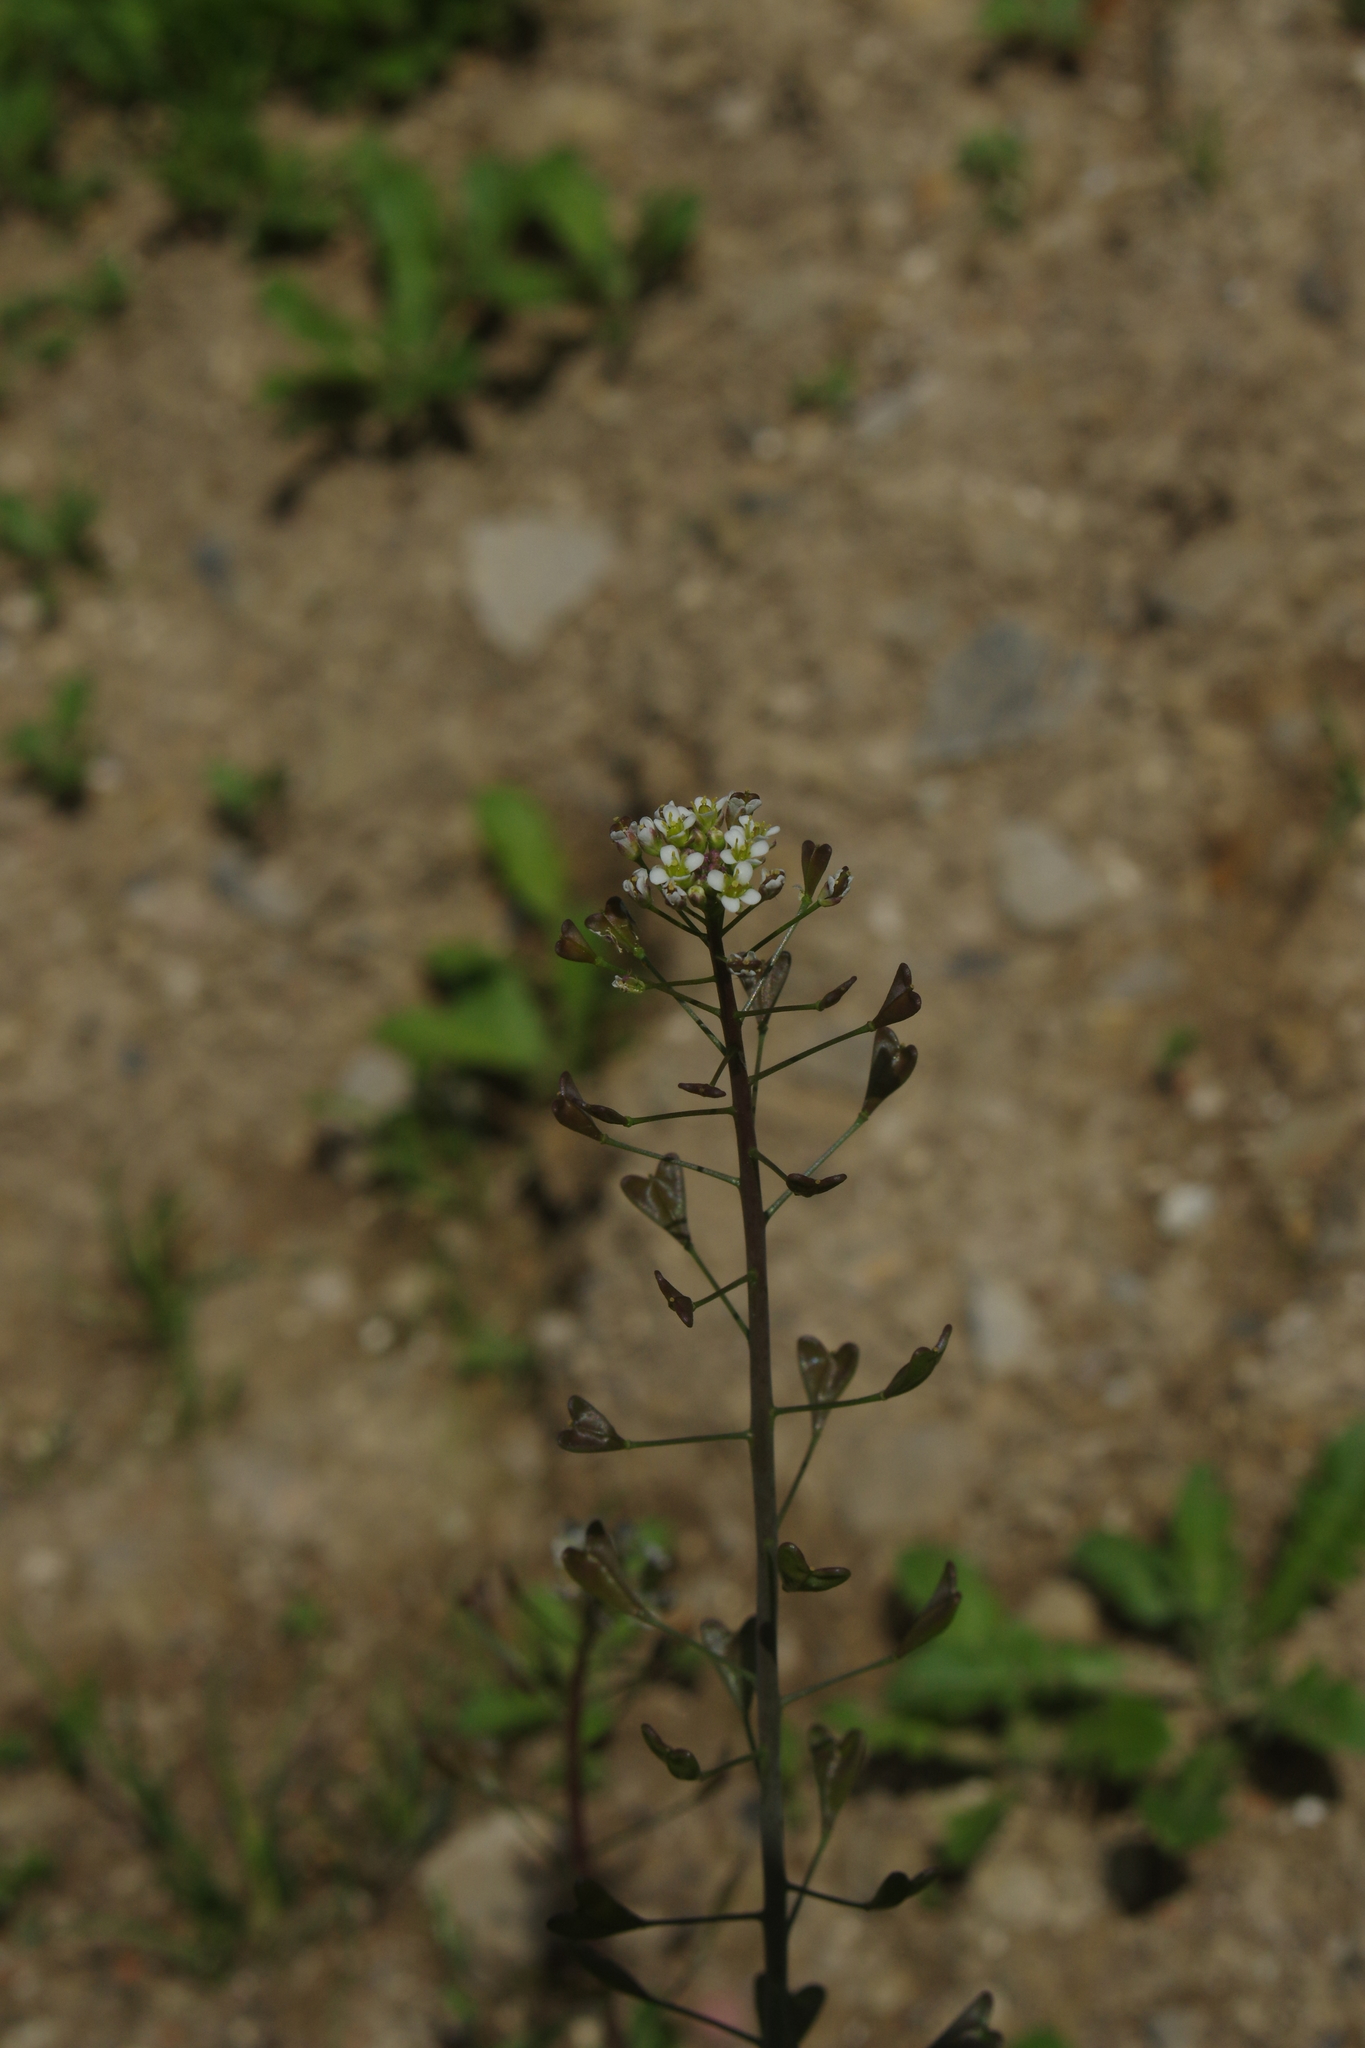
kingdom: Plantae
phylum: Tracheophyta
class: Magnoliopsida
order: Brassicales
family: Brassicaceae
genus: Capsella
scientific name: Capsella bursa-pastoris
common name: Shepherd's purse
